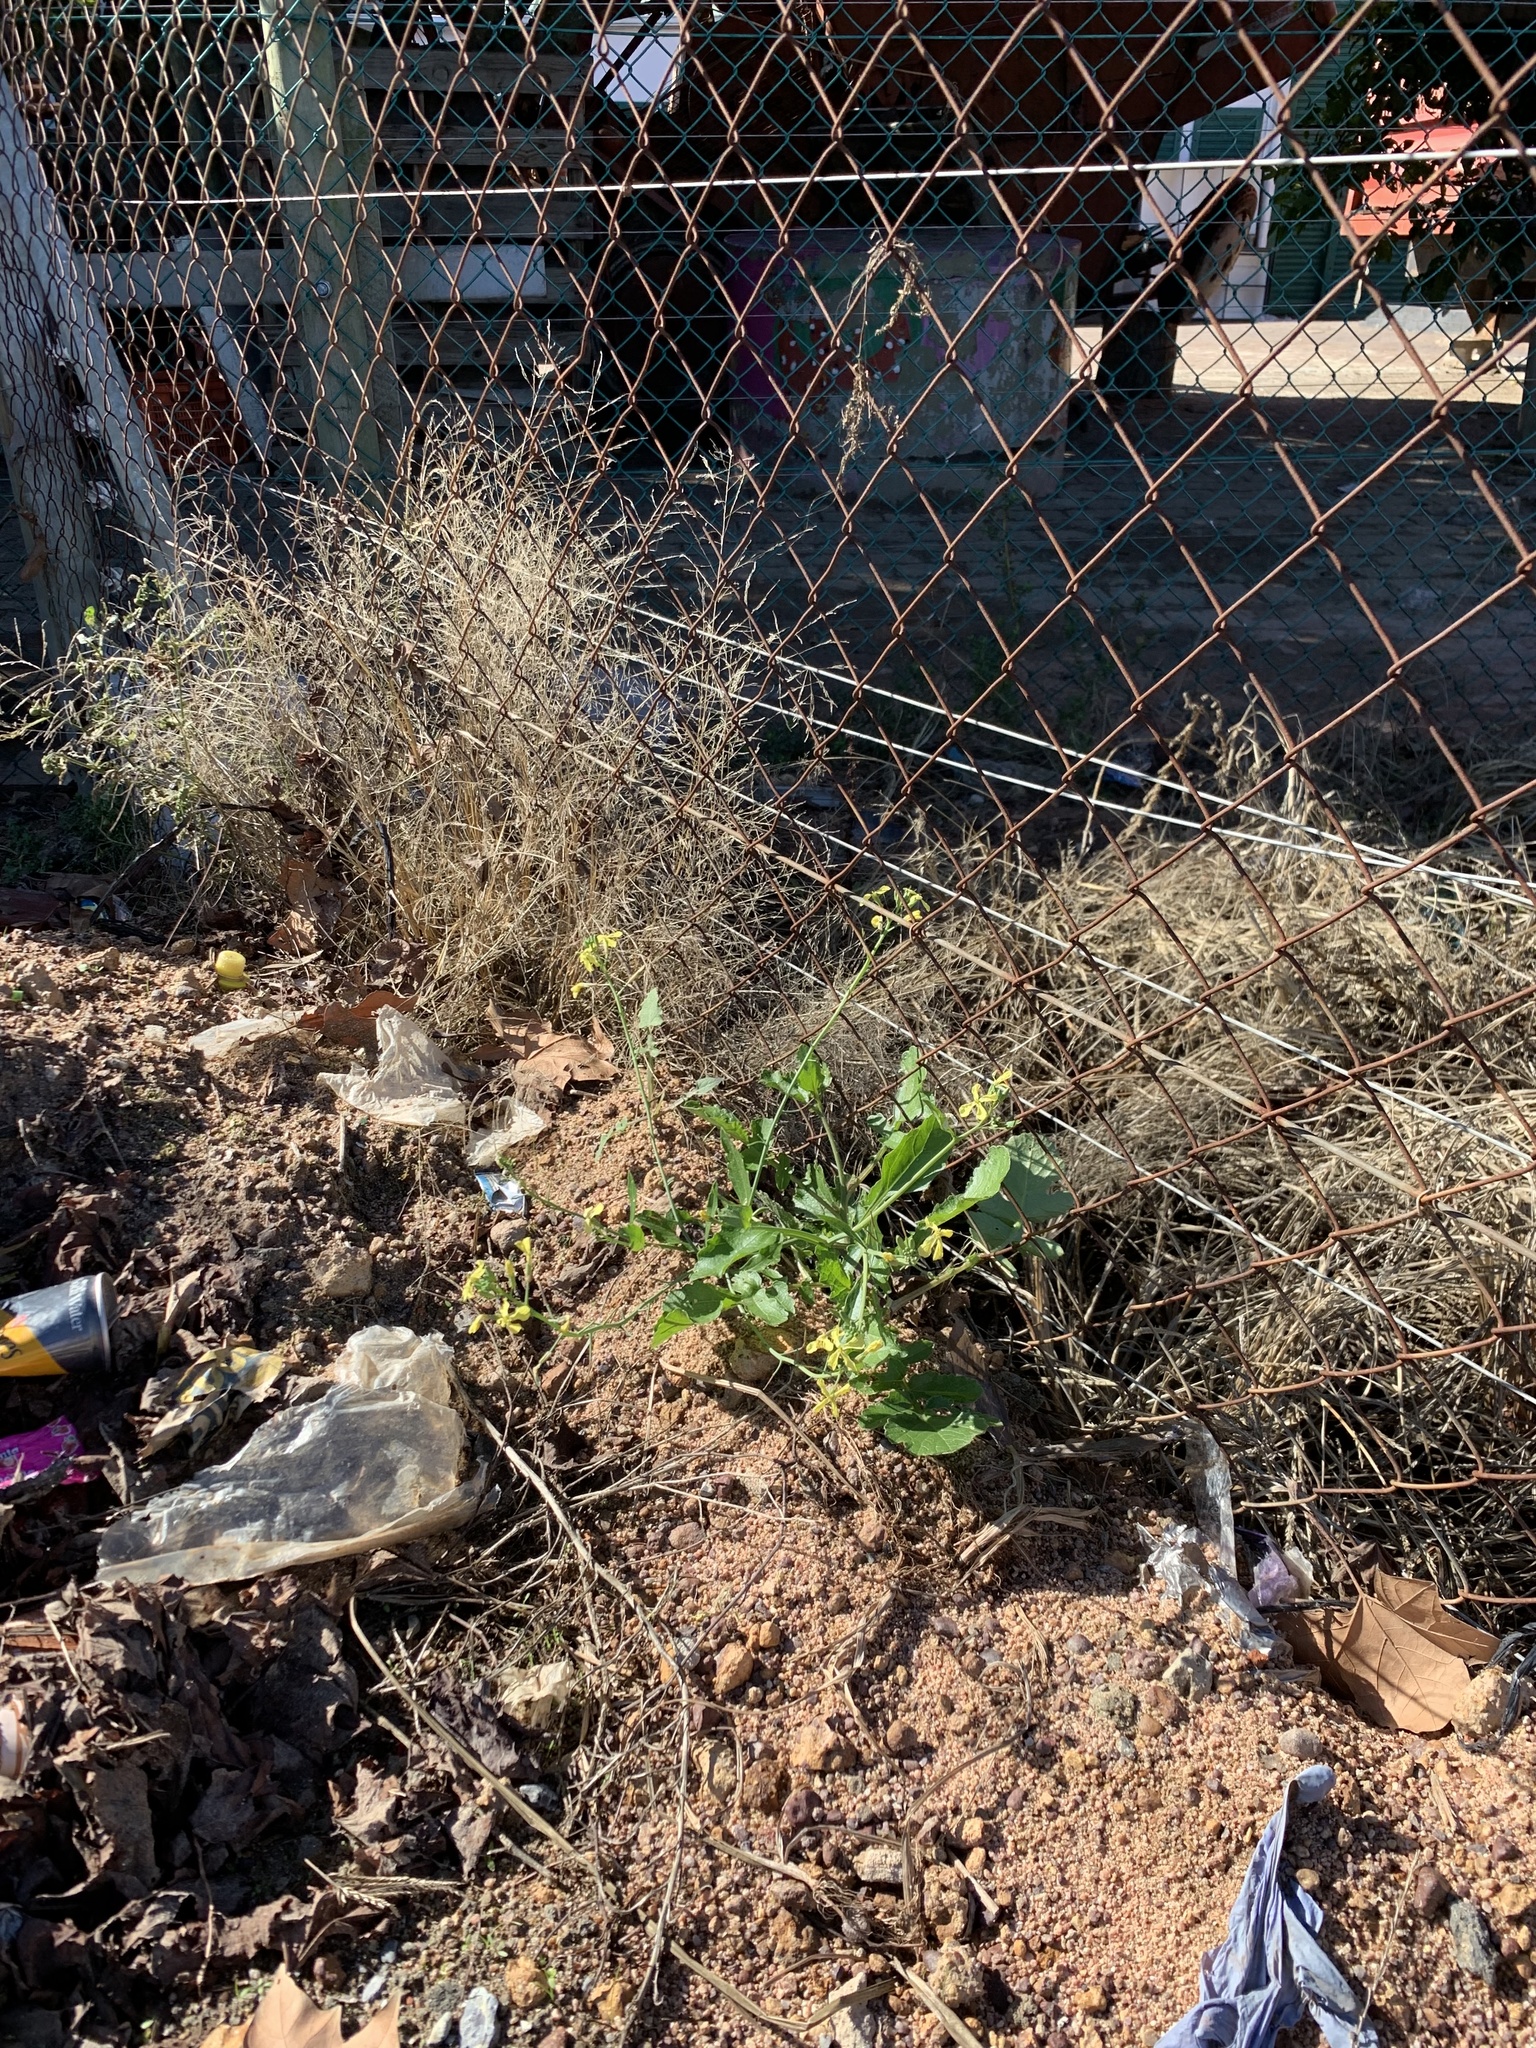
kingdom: Plantae
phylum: Tracheophyta
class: Magnoliopsida
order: Brassicales
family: Brassicaceae
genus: Raphanus
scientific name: Raphanus raphanistrum
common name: Wild radish
